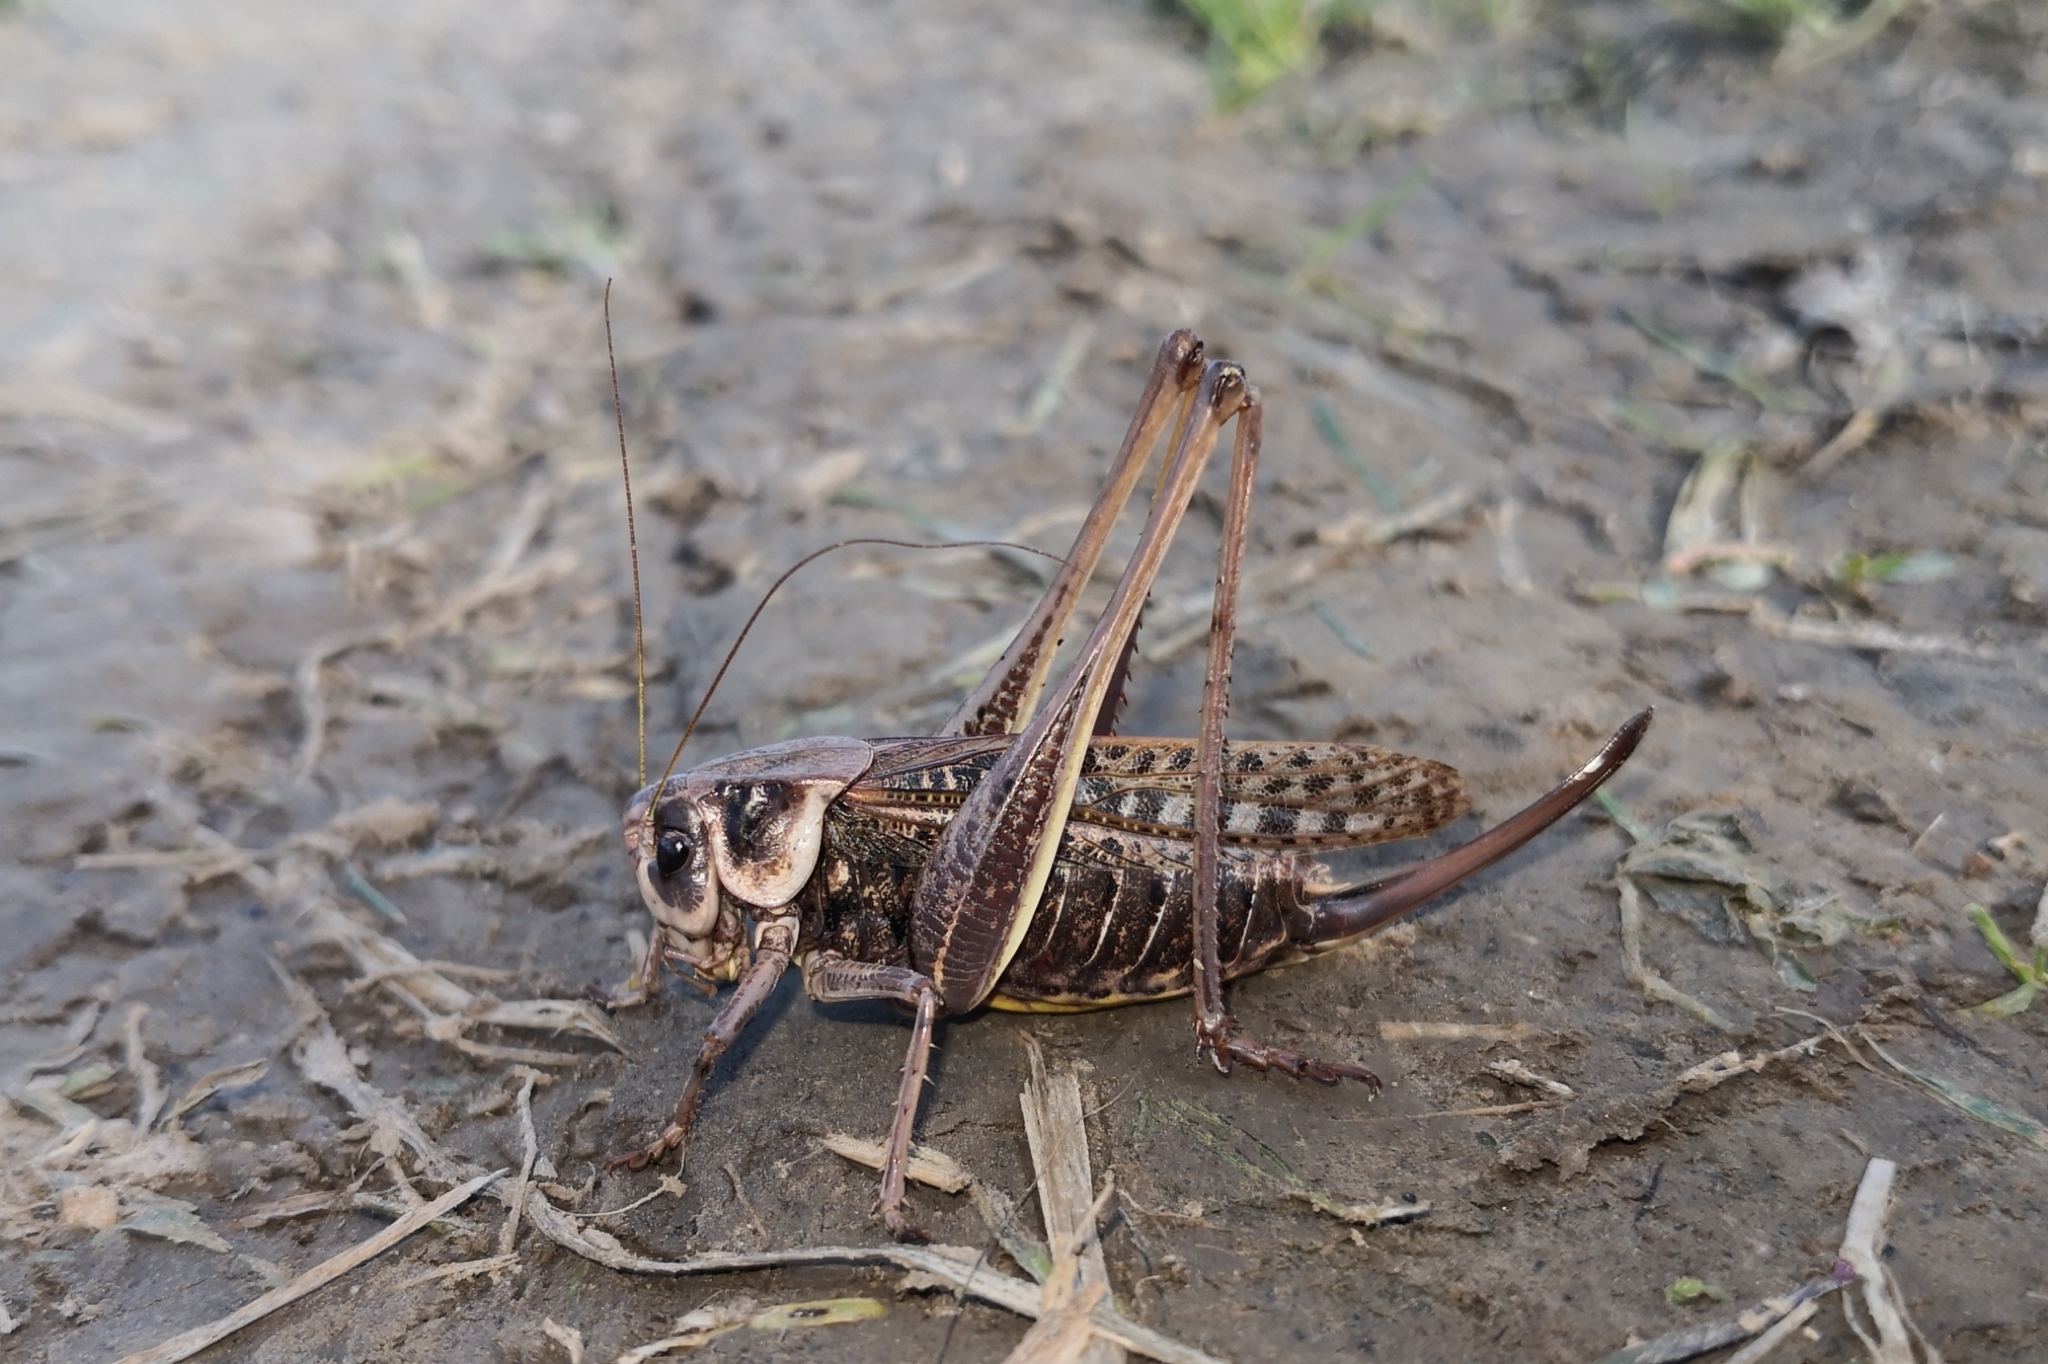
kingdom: Animalia
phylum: Arthropoda
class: Insecta
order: Orthoptera
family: Tettigoniidae
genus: Decticus
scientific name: Decticus verrucivorus
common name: Wart-biter
